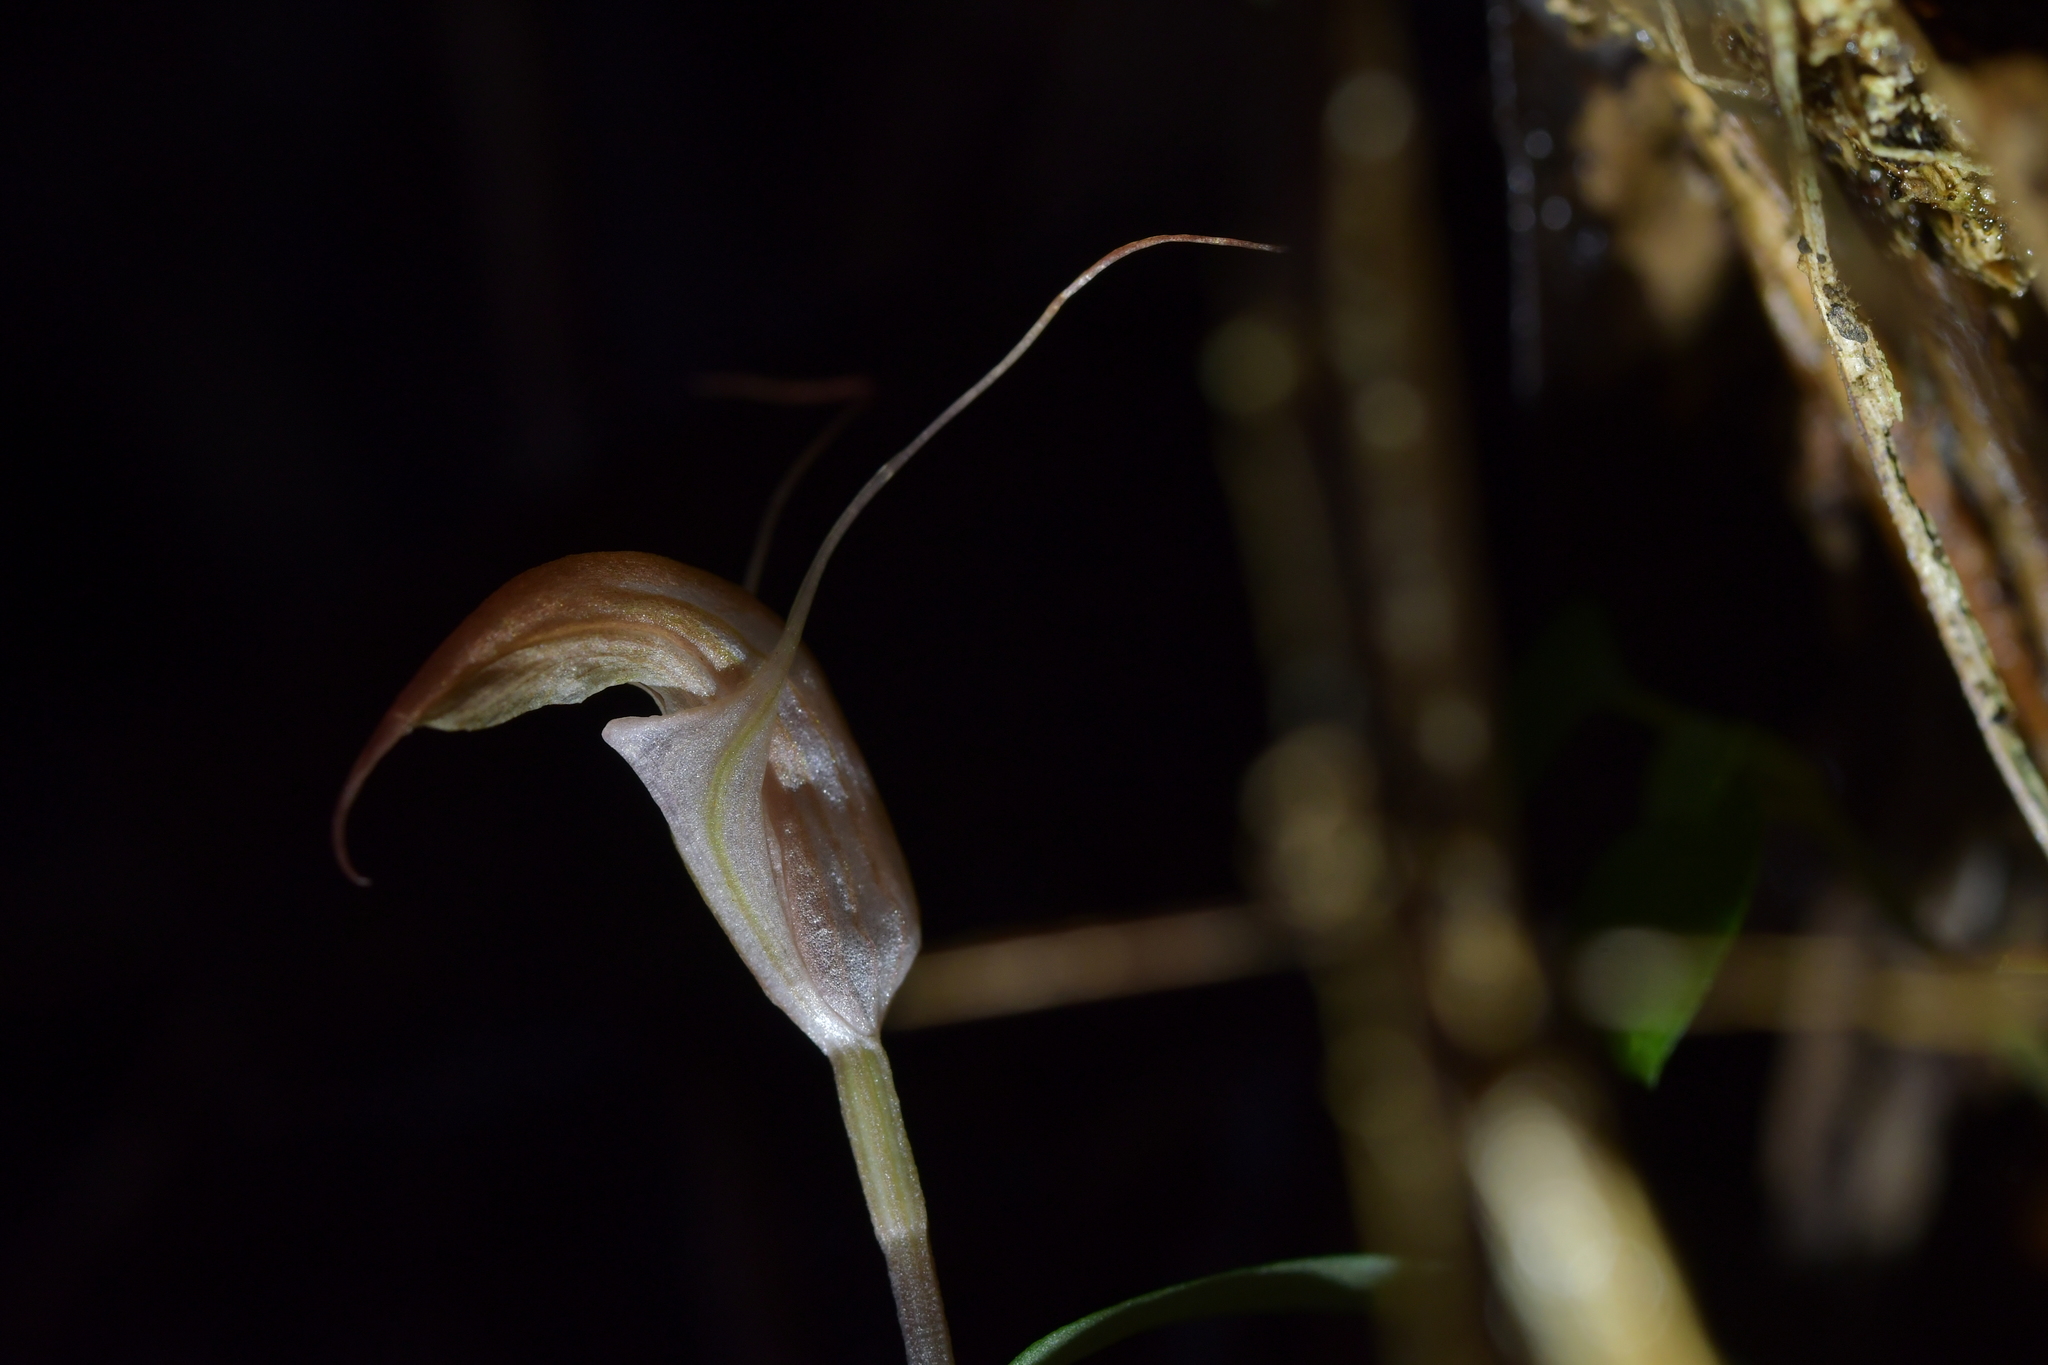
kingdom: Plantae
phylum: Tracheophyta
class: Liliopsida
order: Asparagales
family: Orchidaceae
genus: Pterostylis
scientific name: Pterostylis brumalis
